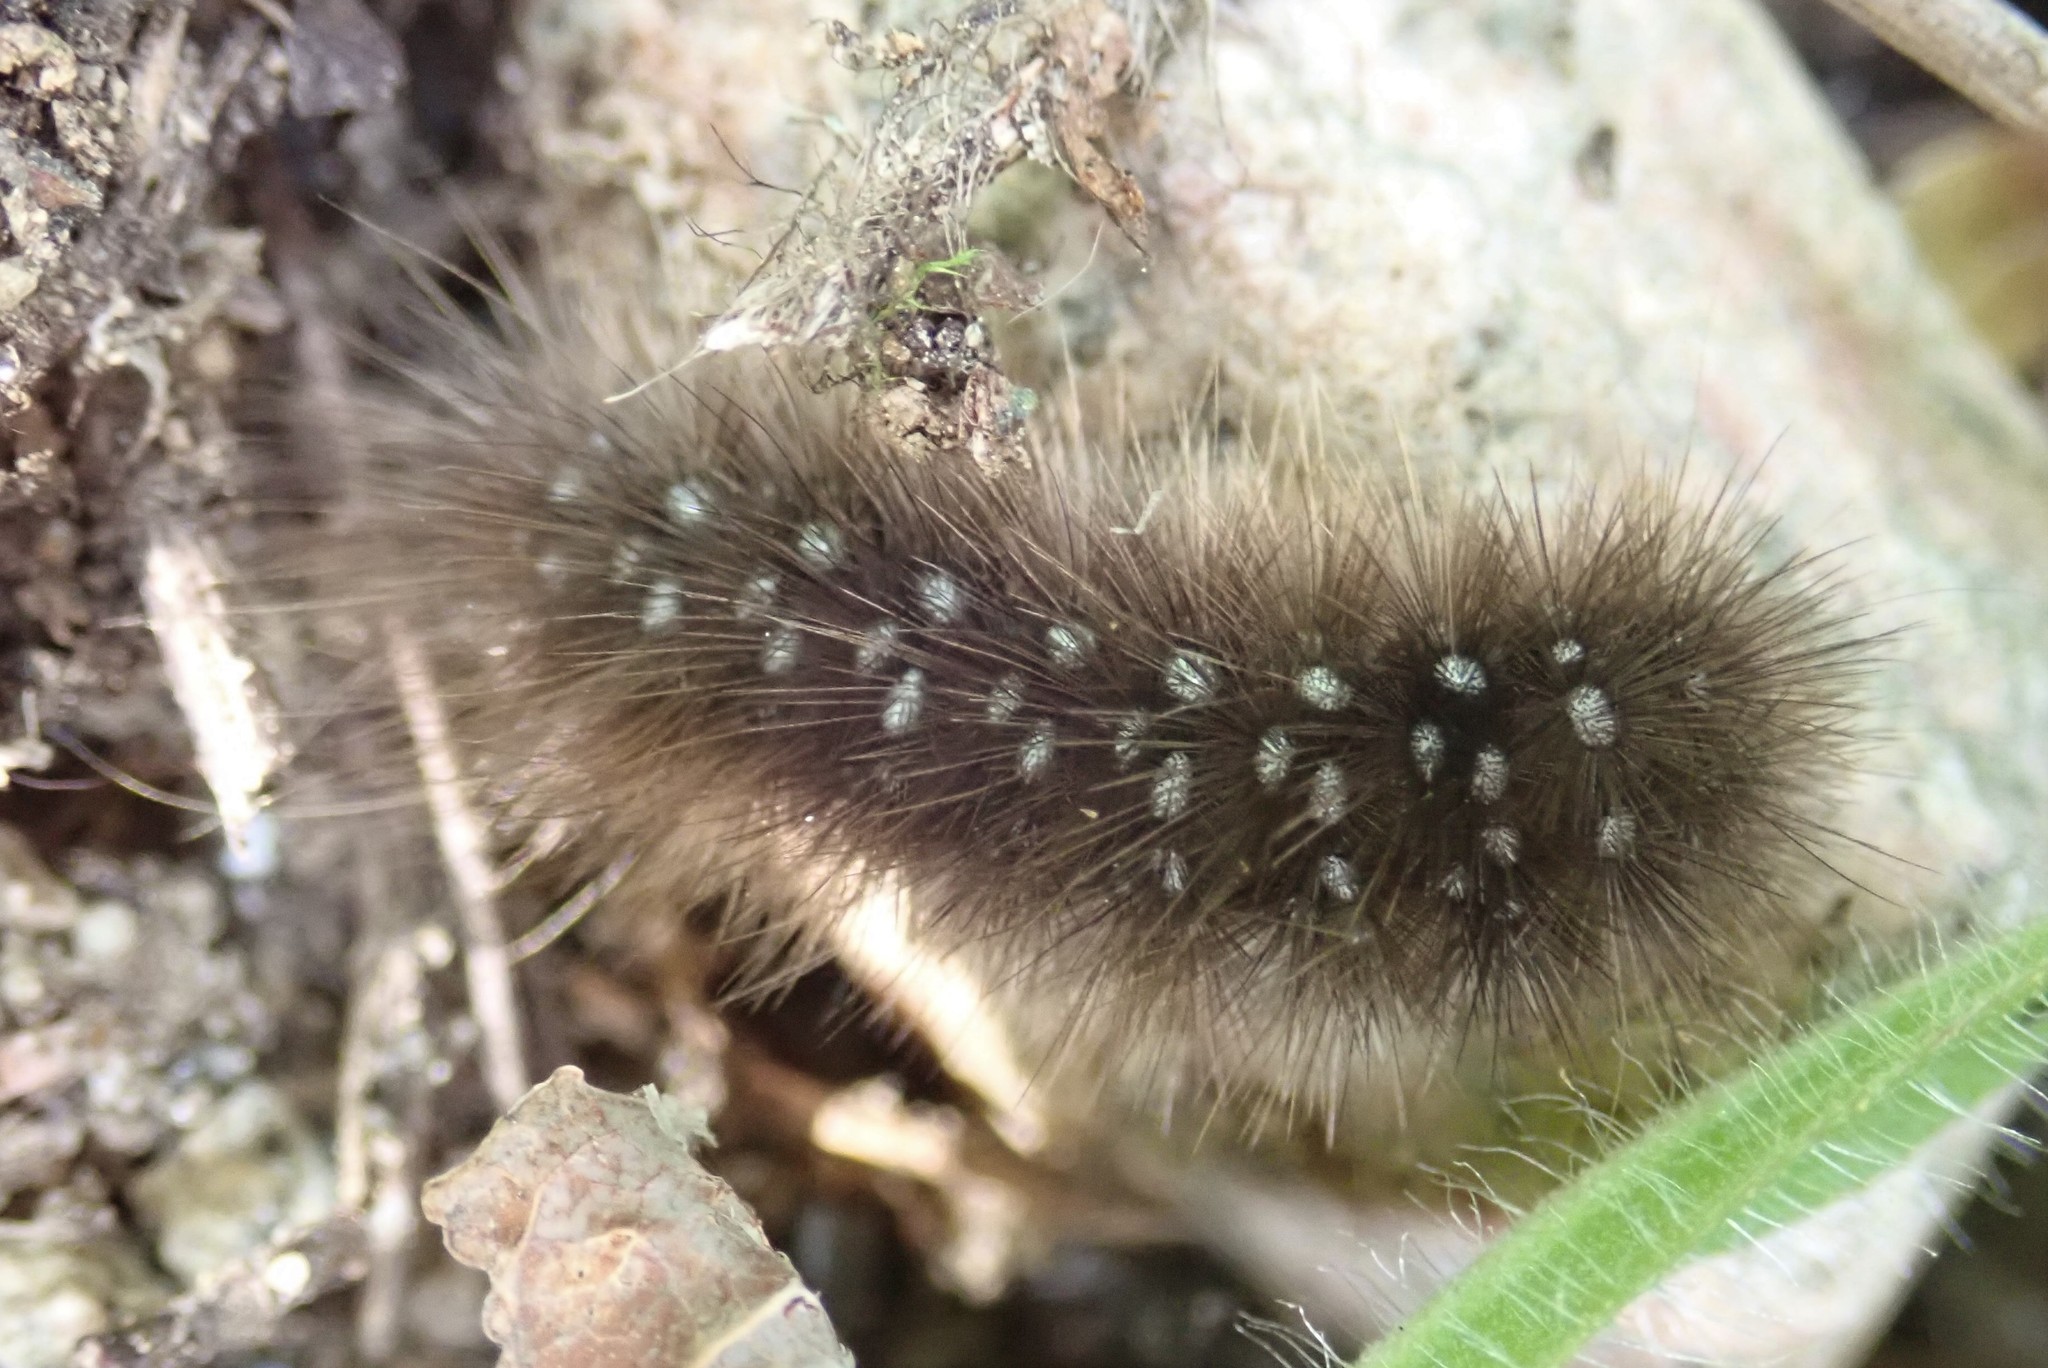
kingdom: Animalia
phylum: Arthropoda
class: Insecta
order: Lepidoptera
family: Erebidae
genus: Arctia
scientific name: Arctia parthenos
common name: St. lawrence tiger moth
